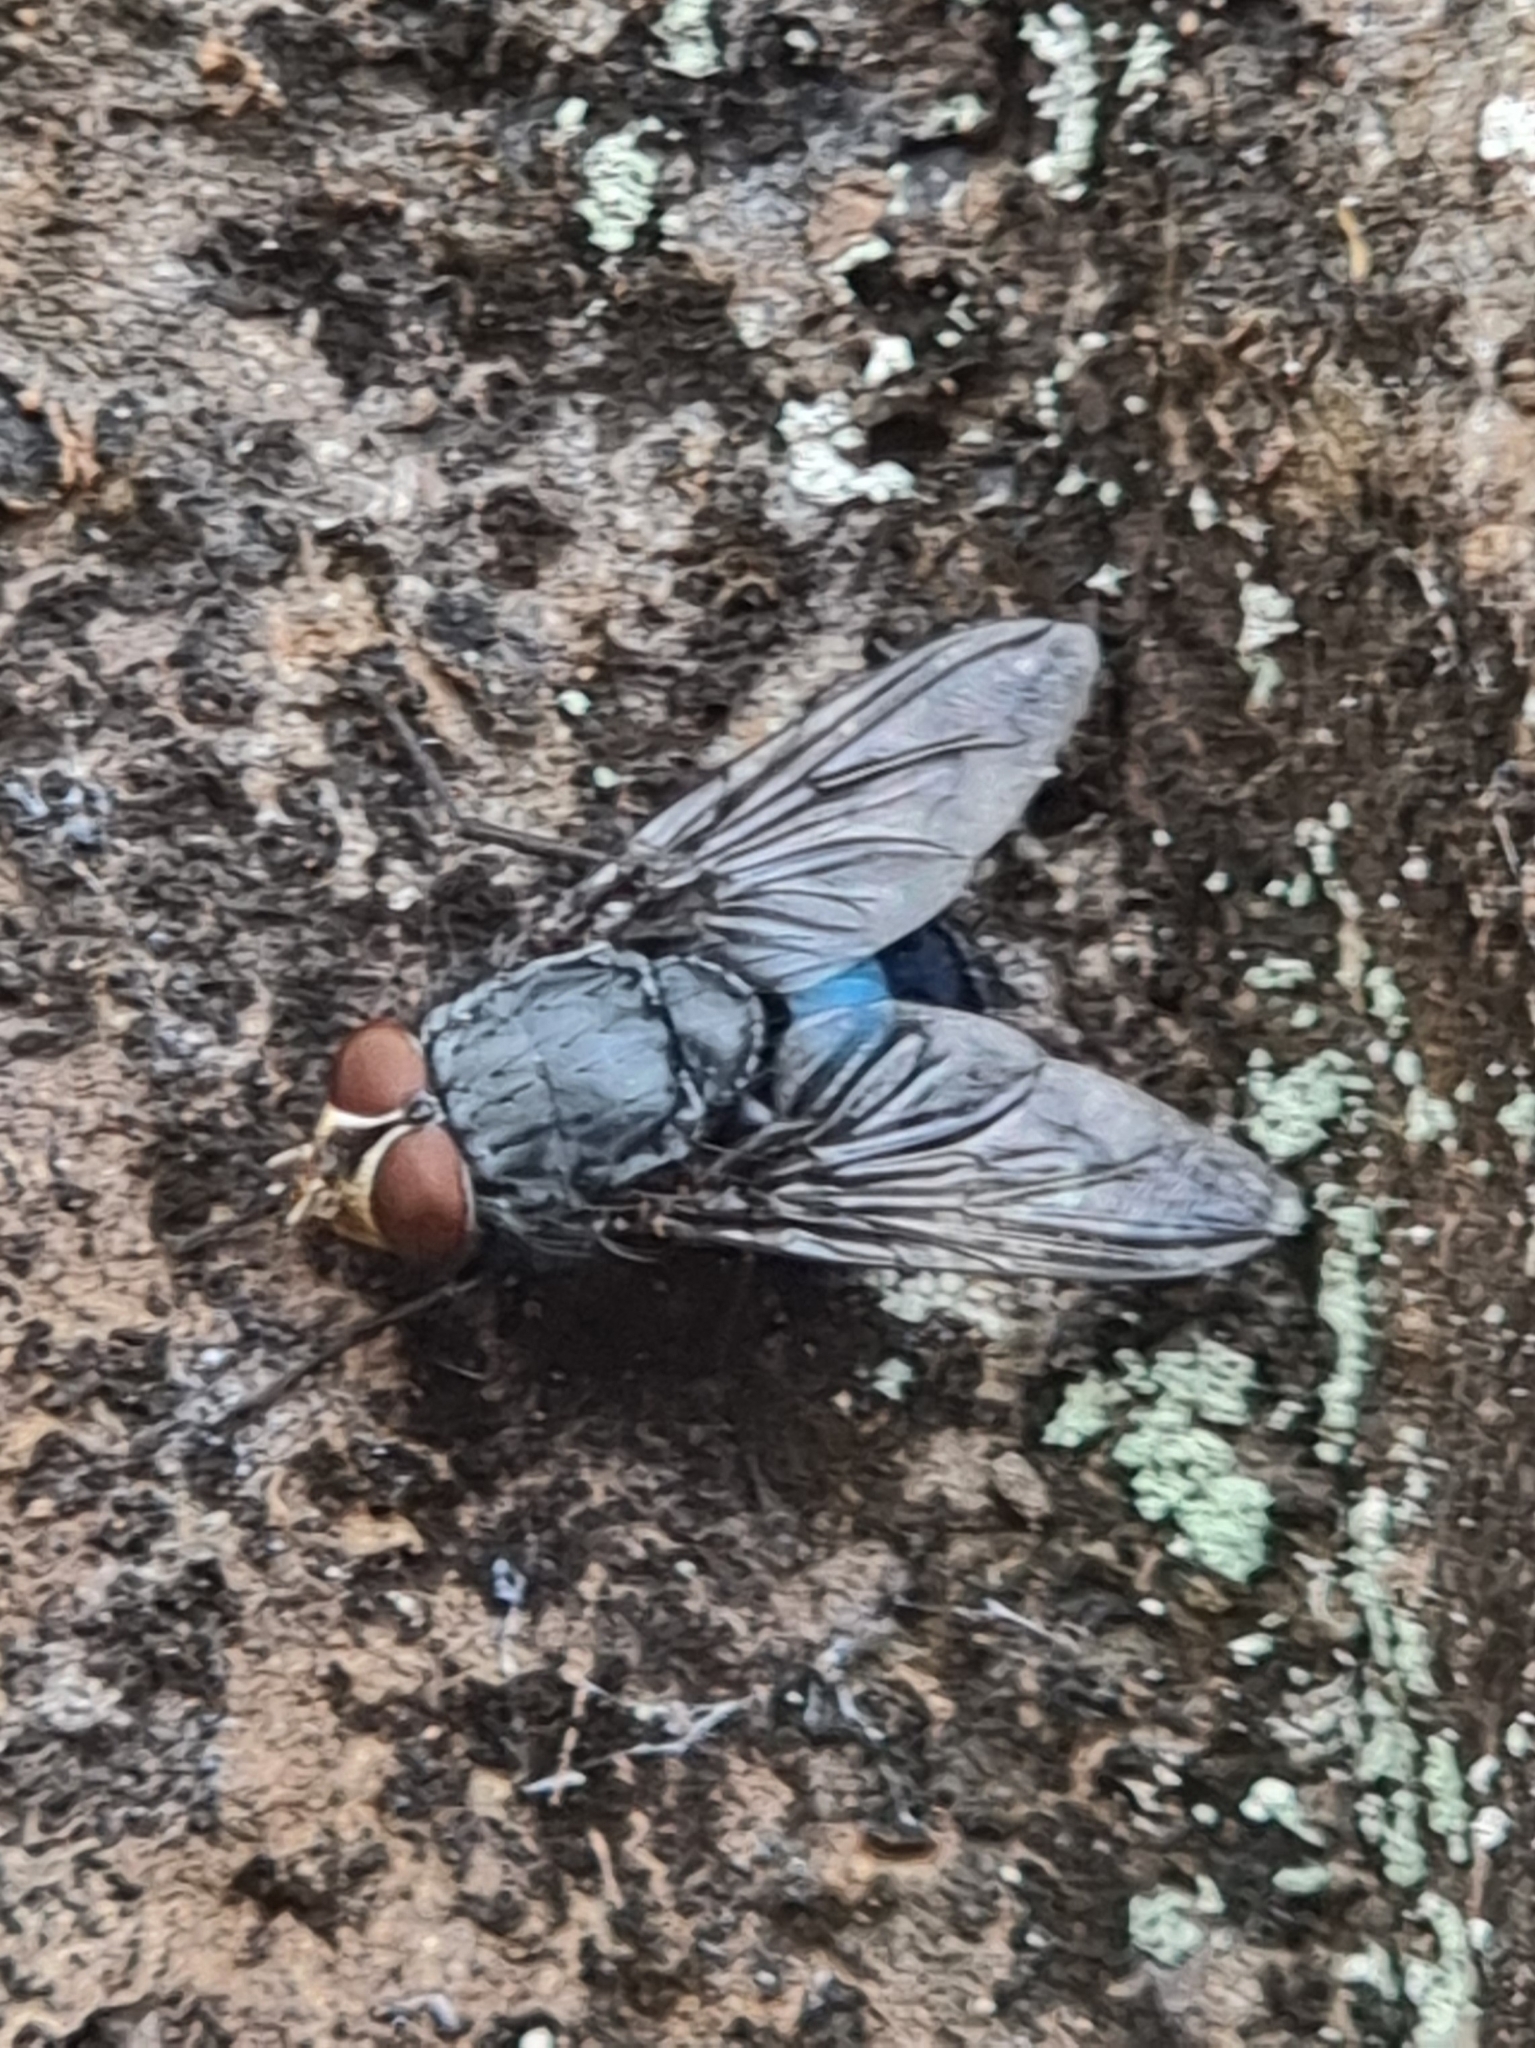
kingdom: Animalia
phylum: Arthropoda
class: Insecta
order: Diptera
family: Calliphoridae
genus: Calliphora
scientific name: Calliphora vicina
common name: Common blow flie
